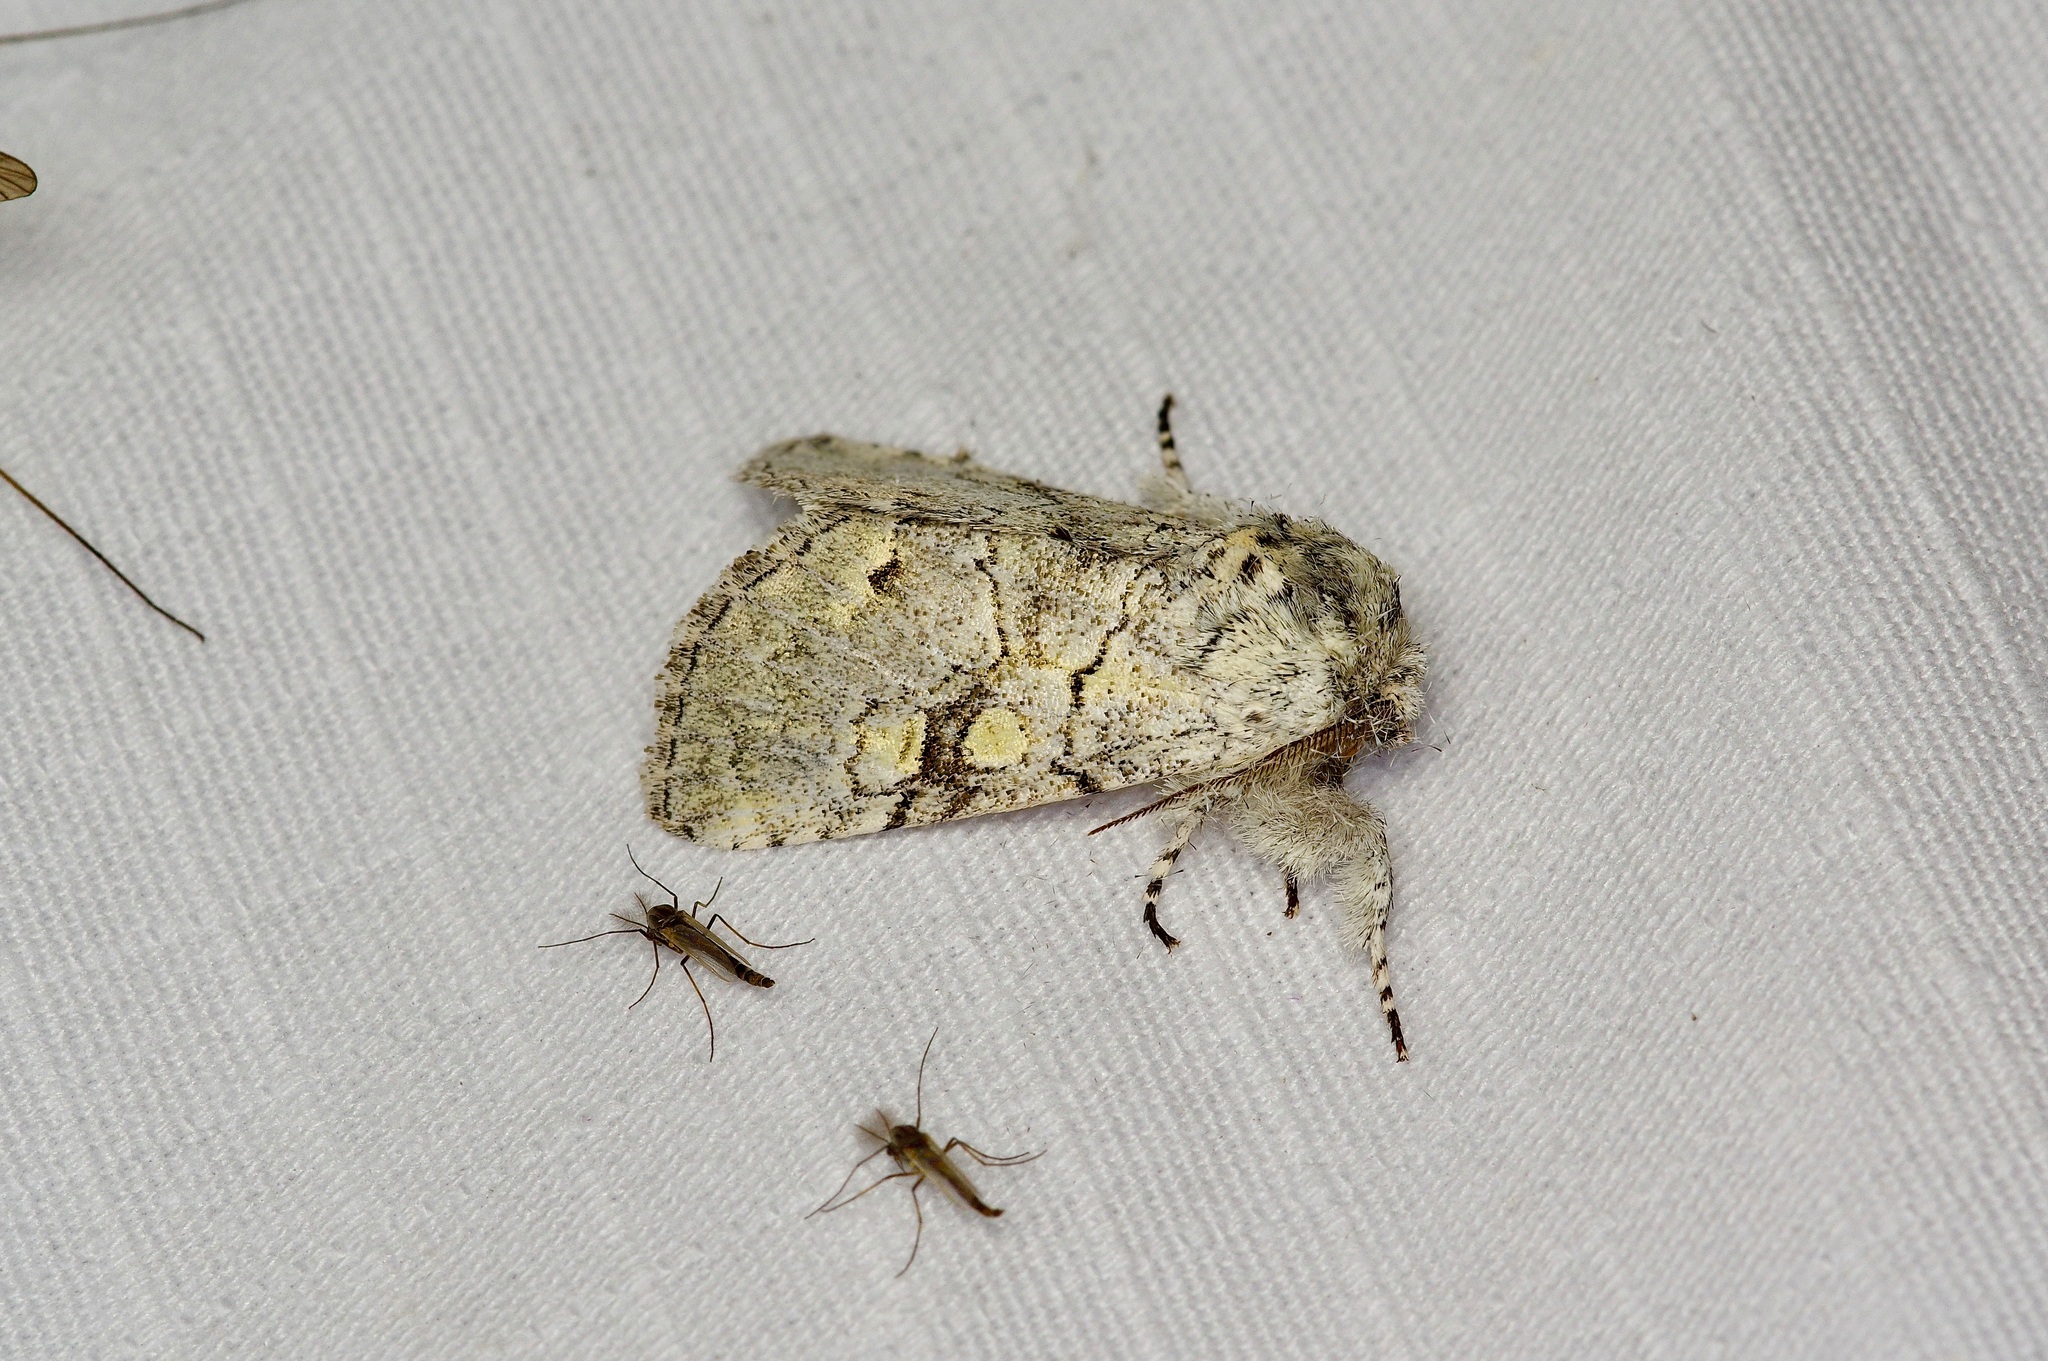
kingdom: Animalia
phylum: Arthropoda
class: Insecta
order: Lepidoptera
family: Noctuidae
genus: Charadra
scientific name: Charadra dispulsa
